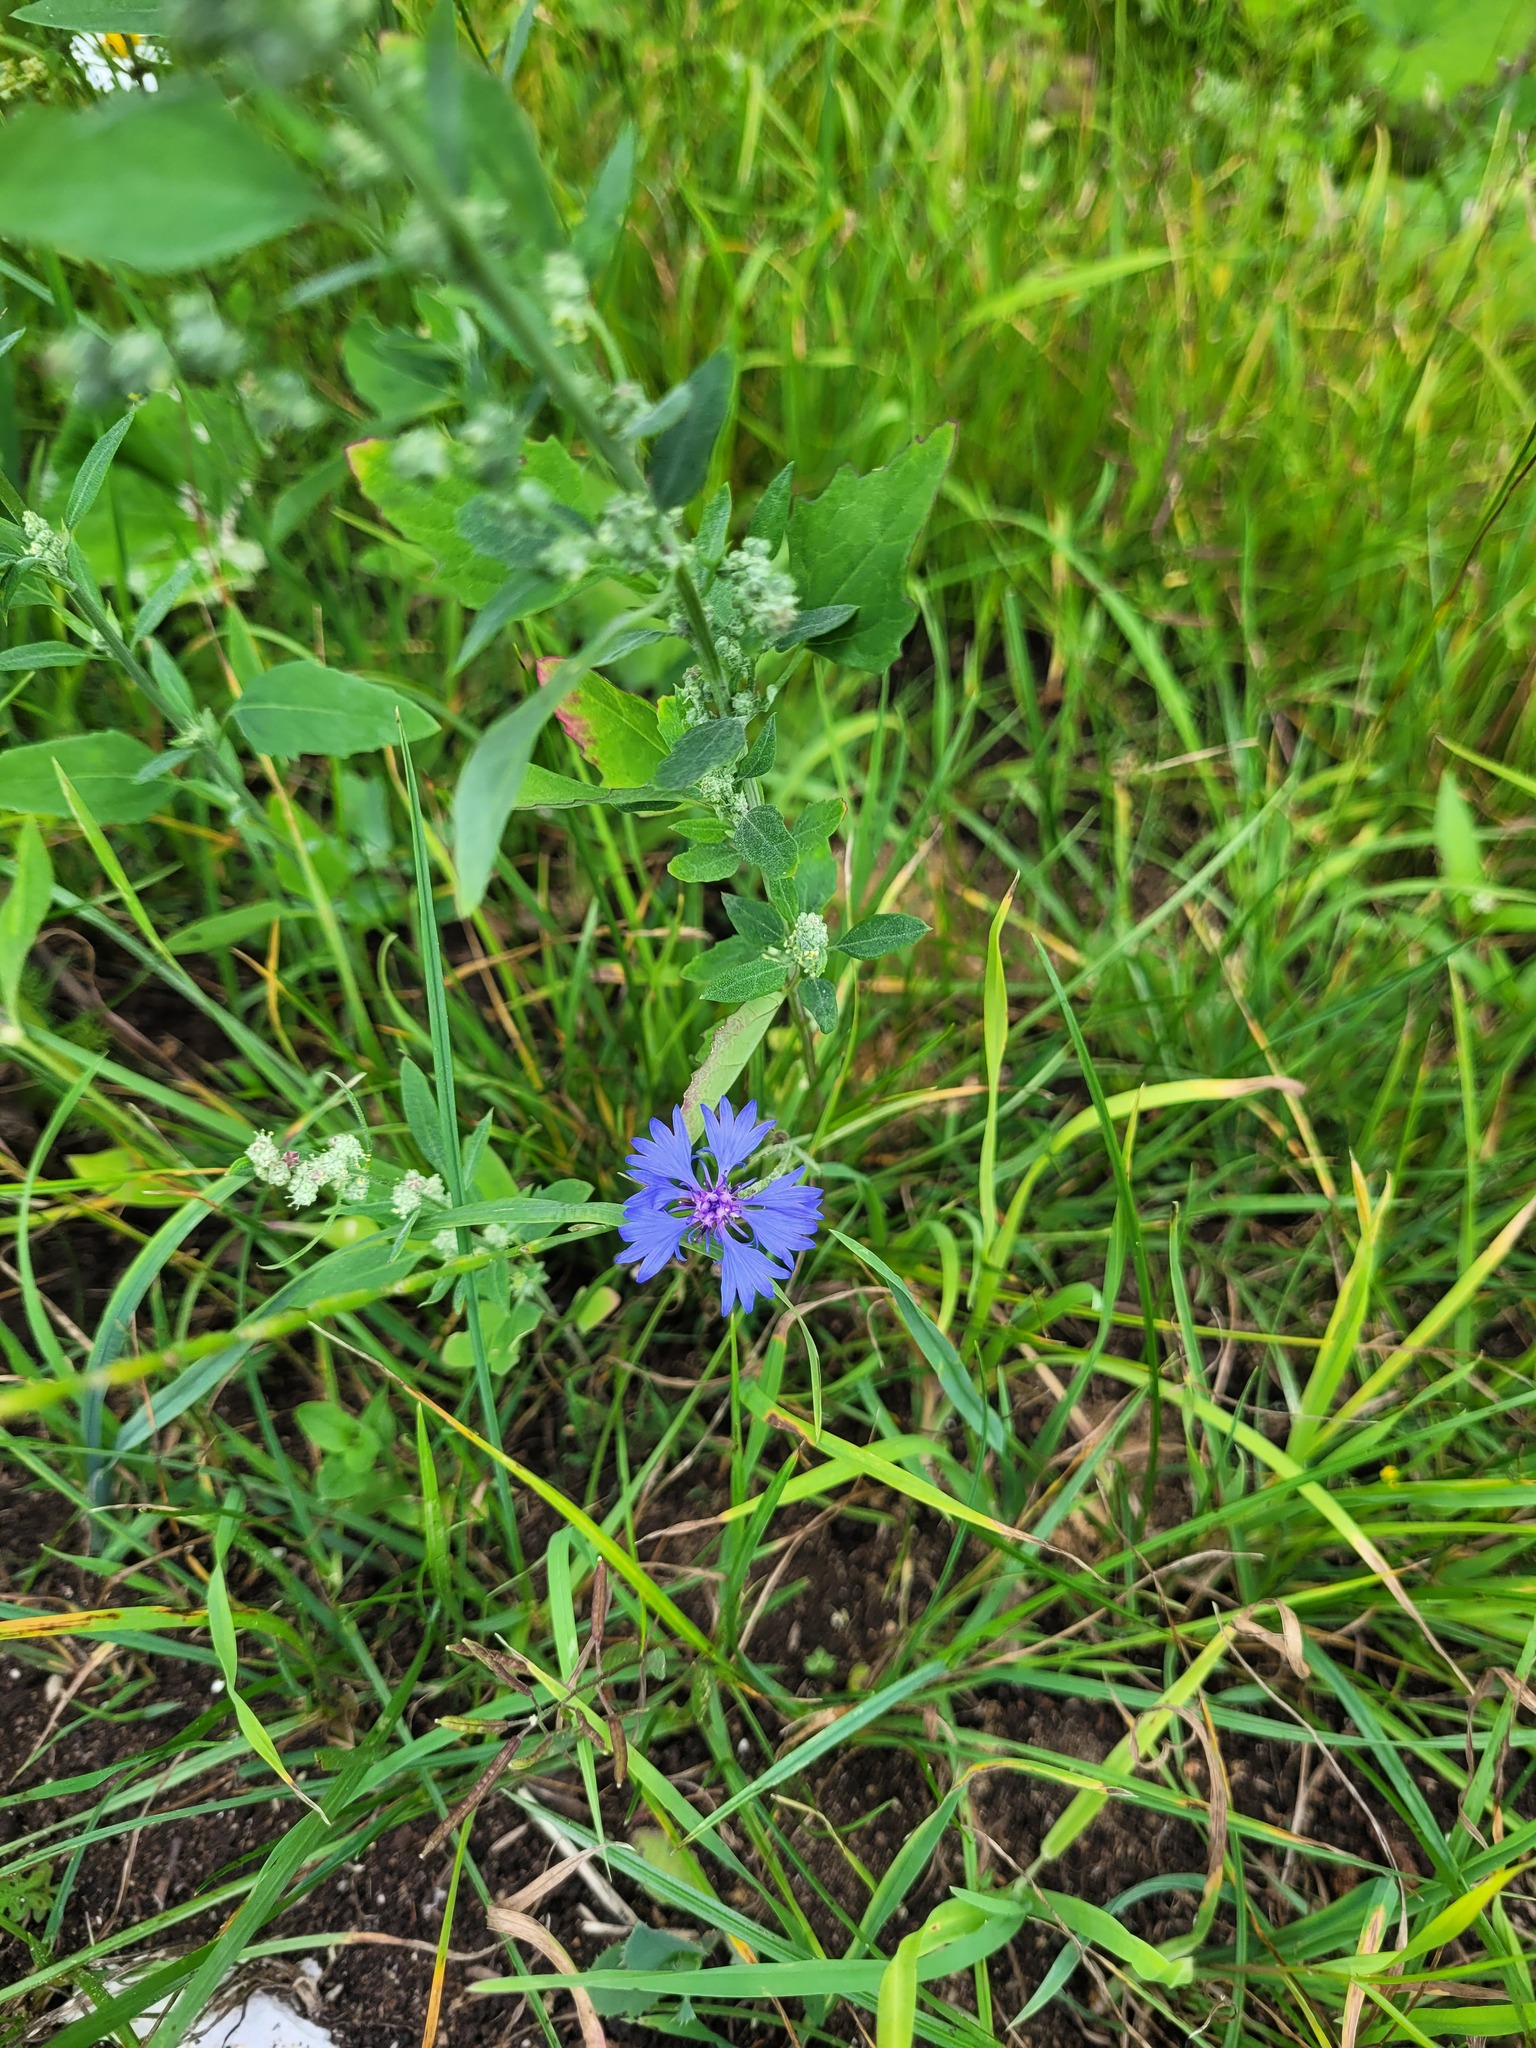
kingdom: Plantae
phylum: Tracheophyta
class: Magnoliopsida
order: Asterales
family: Asteraceae
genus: Centaurea
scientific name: Centaurea cyanus
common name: Cornflower
